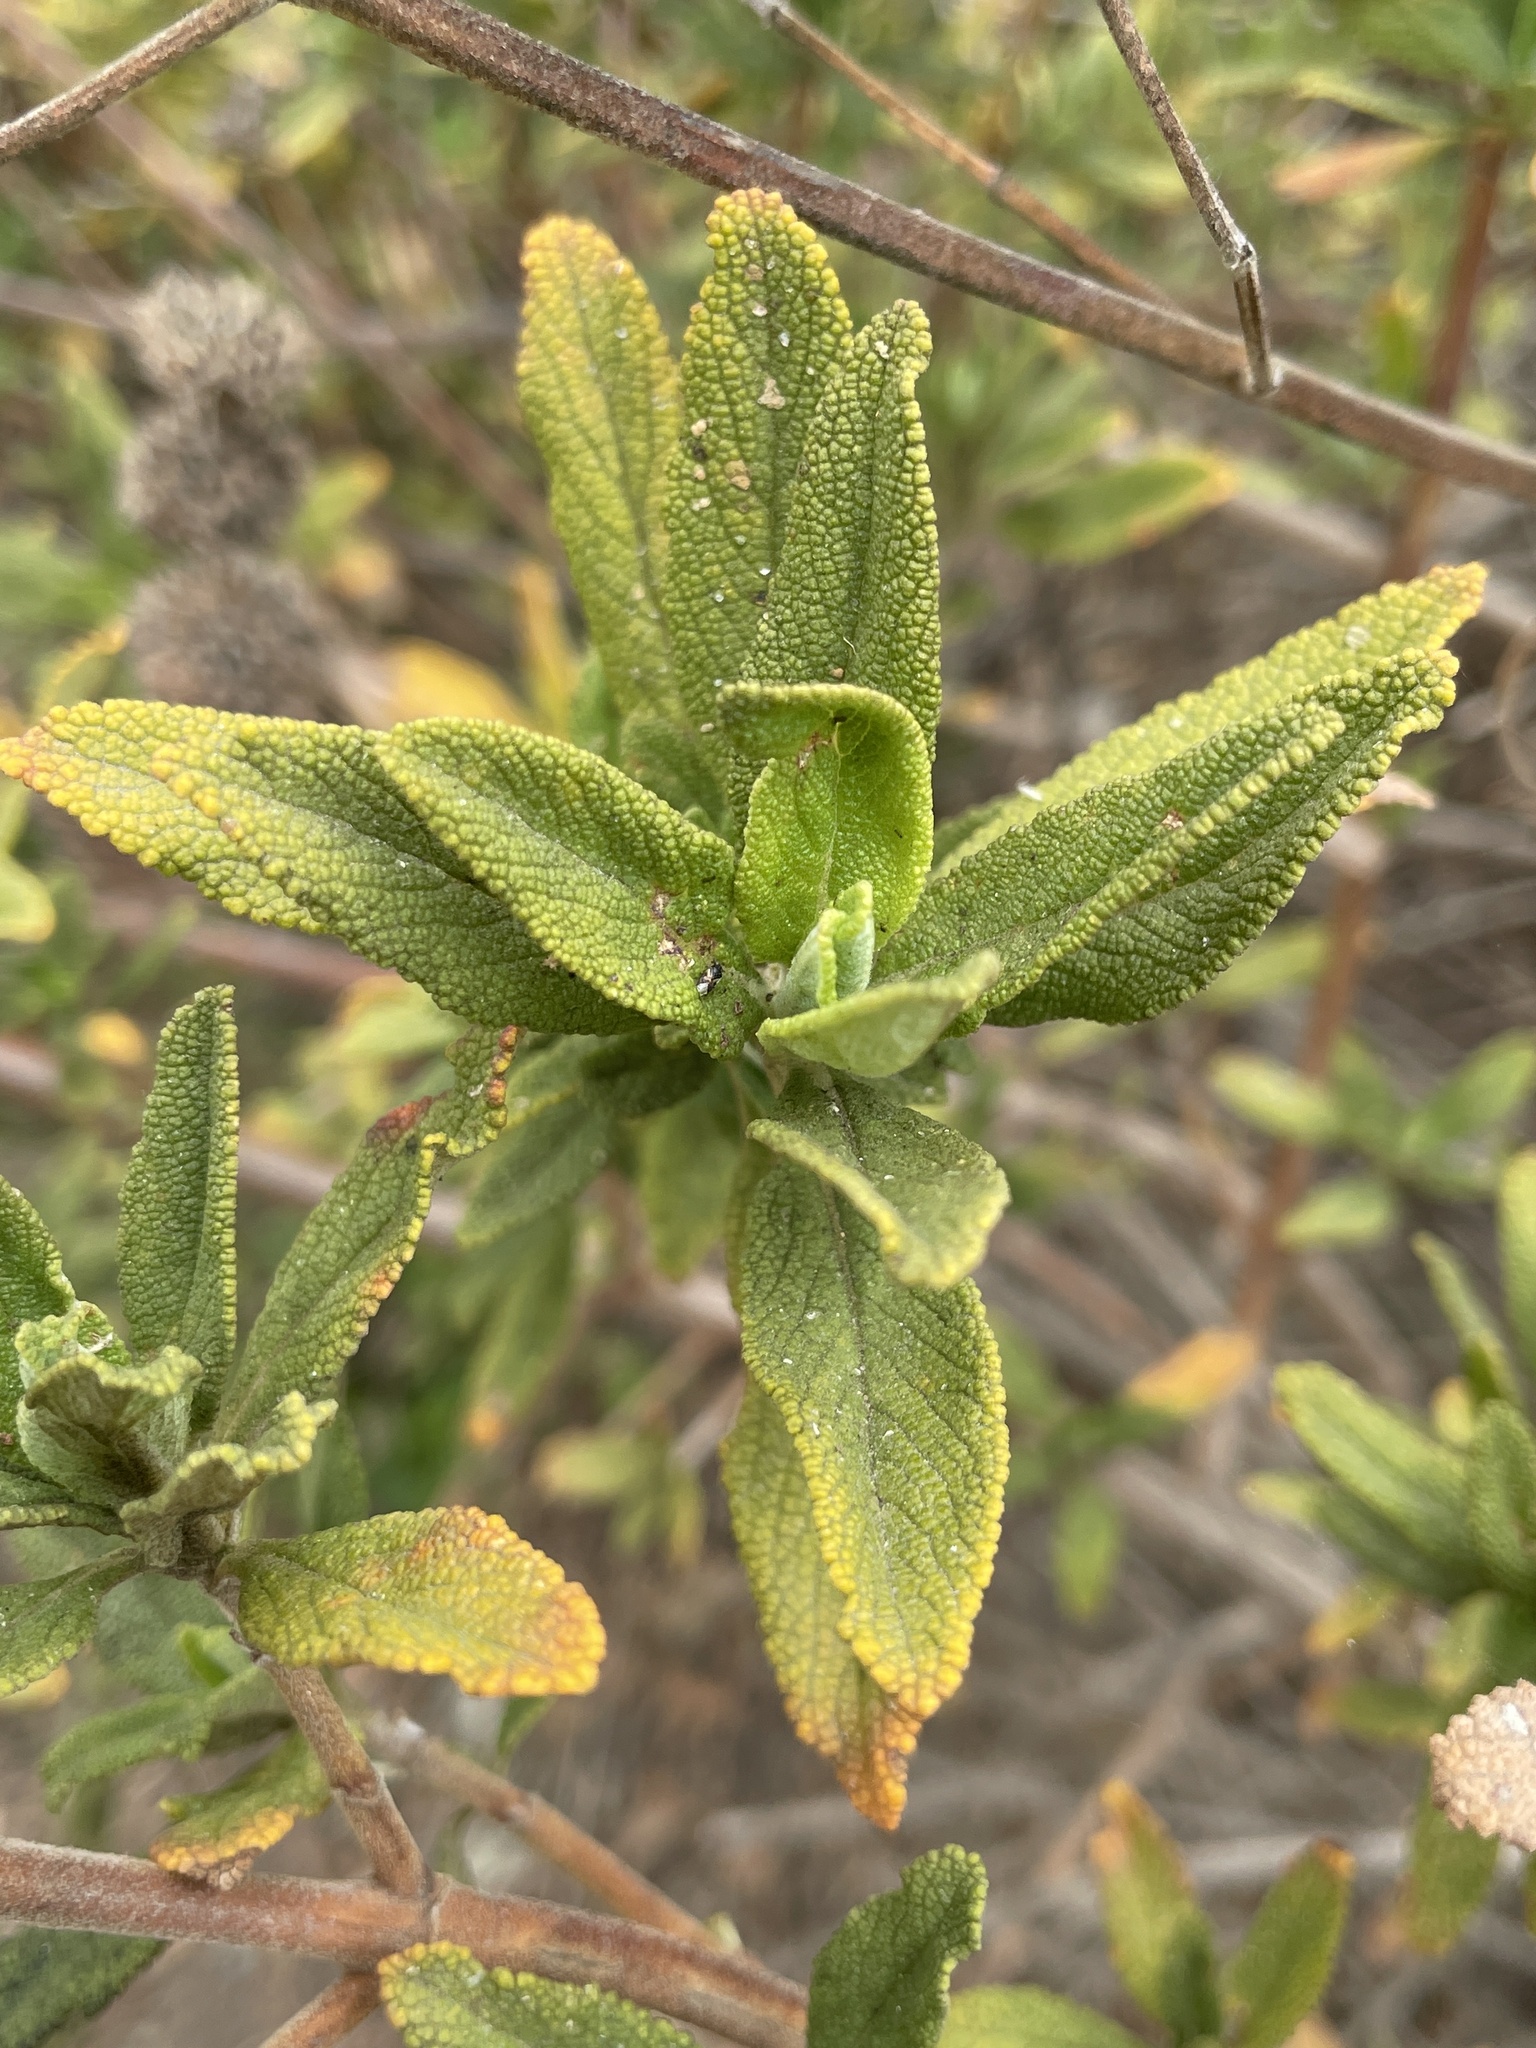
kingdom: Plantae
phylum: Tracheophyta
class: Magnoliopsida
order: Lamiales
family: Lamiaceae
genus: Salvia
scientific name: Salvia mellifera
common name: Black sage
